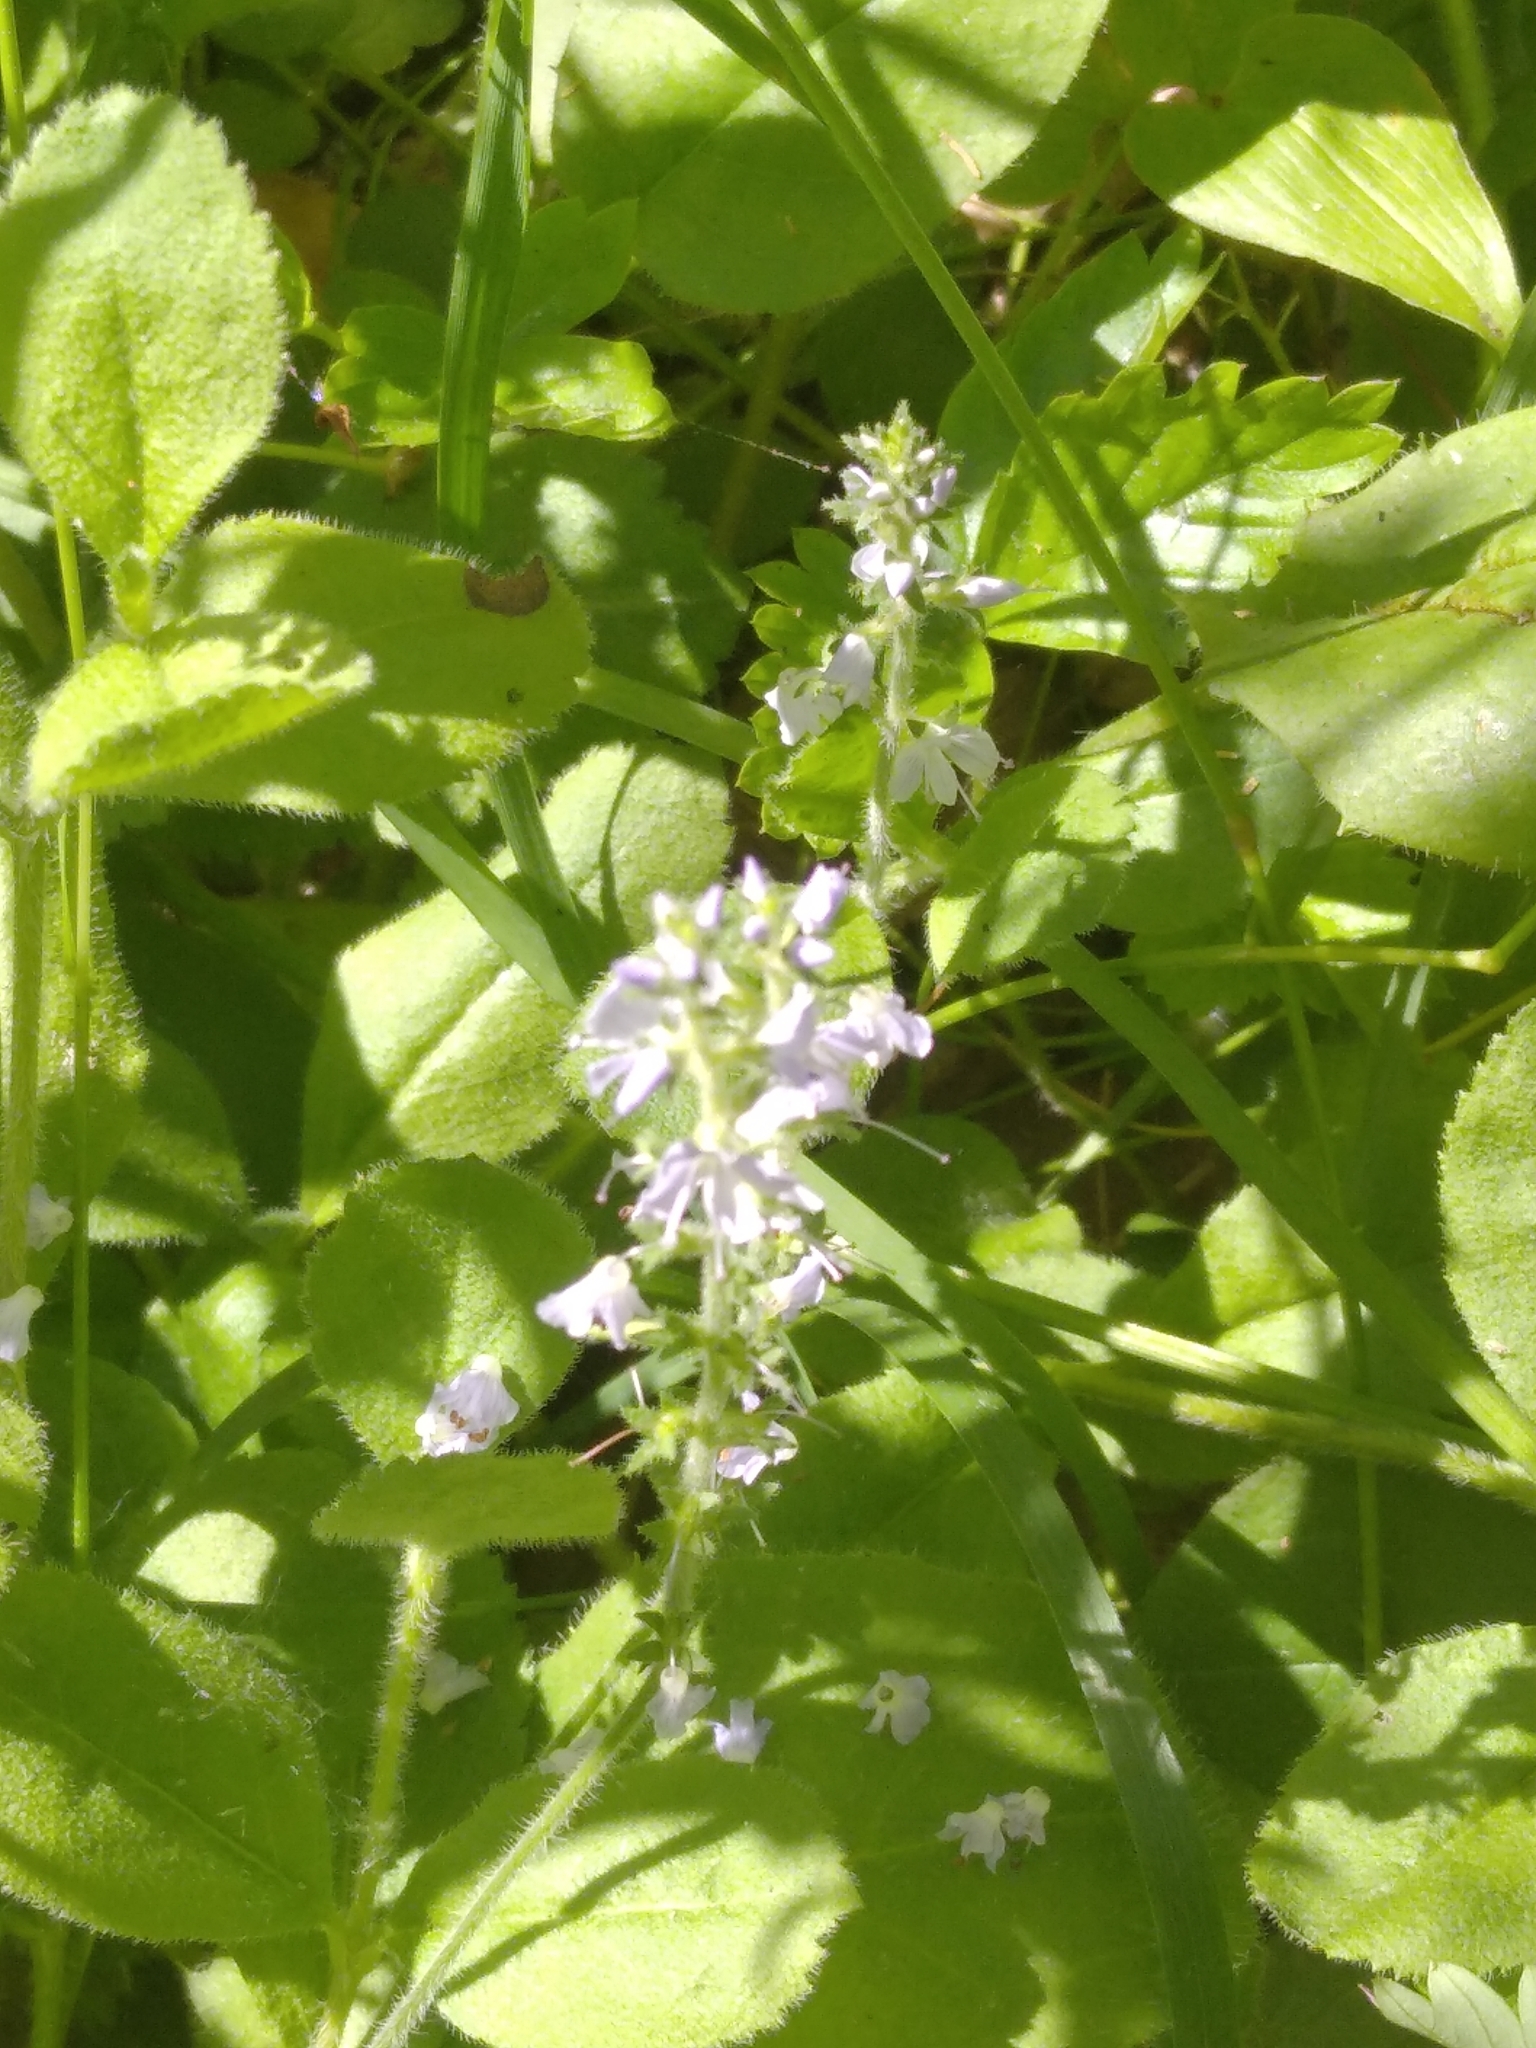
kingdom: Plantae
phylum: Tracheophyta
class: Magnoliopsida
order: Lamiales
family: Plantaginaceae
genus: Veronica
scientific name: Veronica officinalis
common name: Common speedwell
